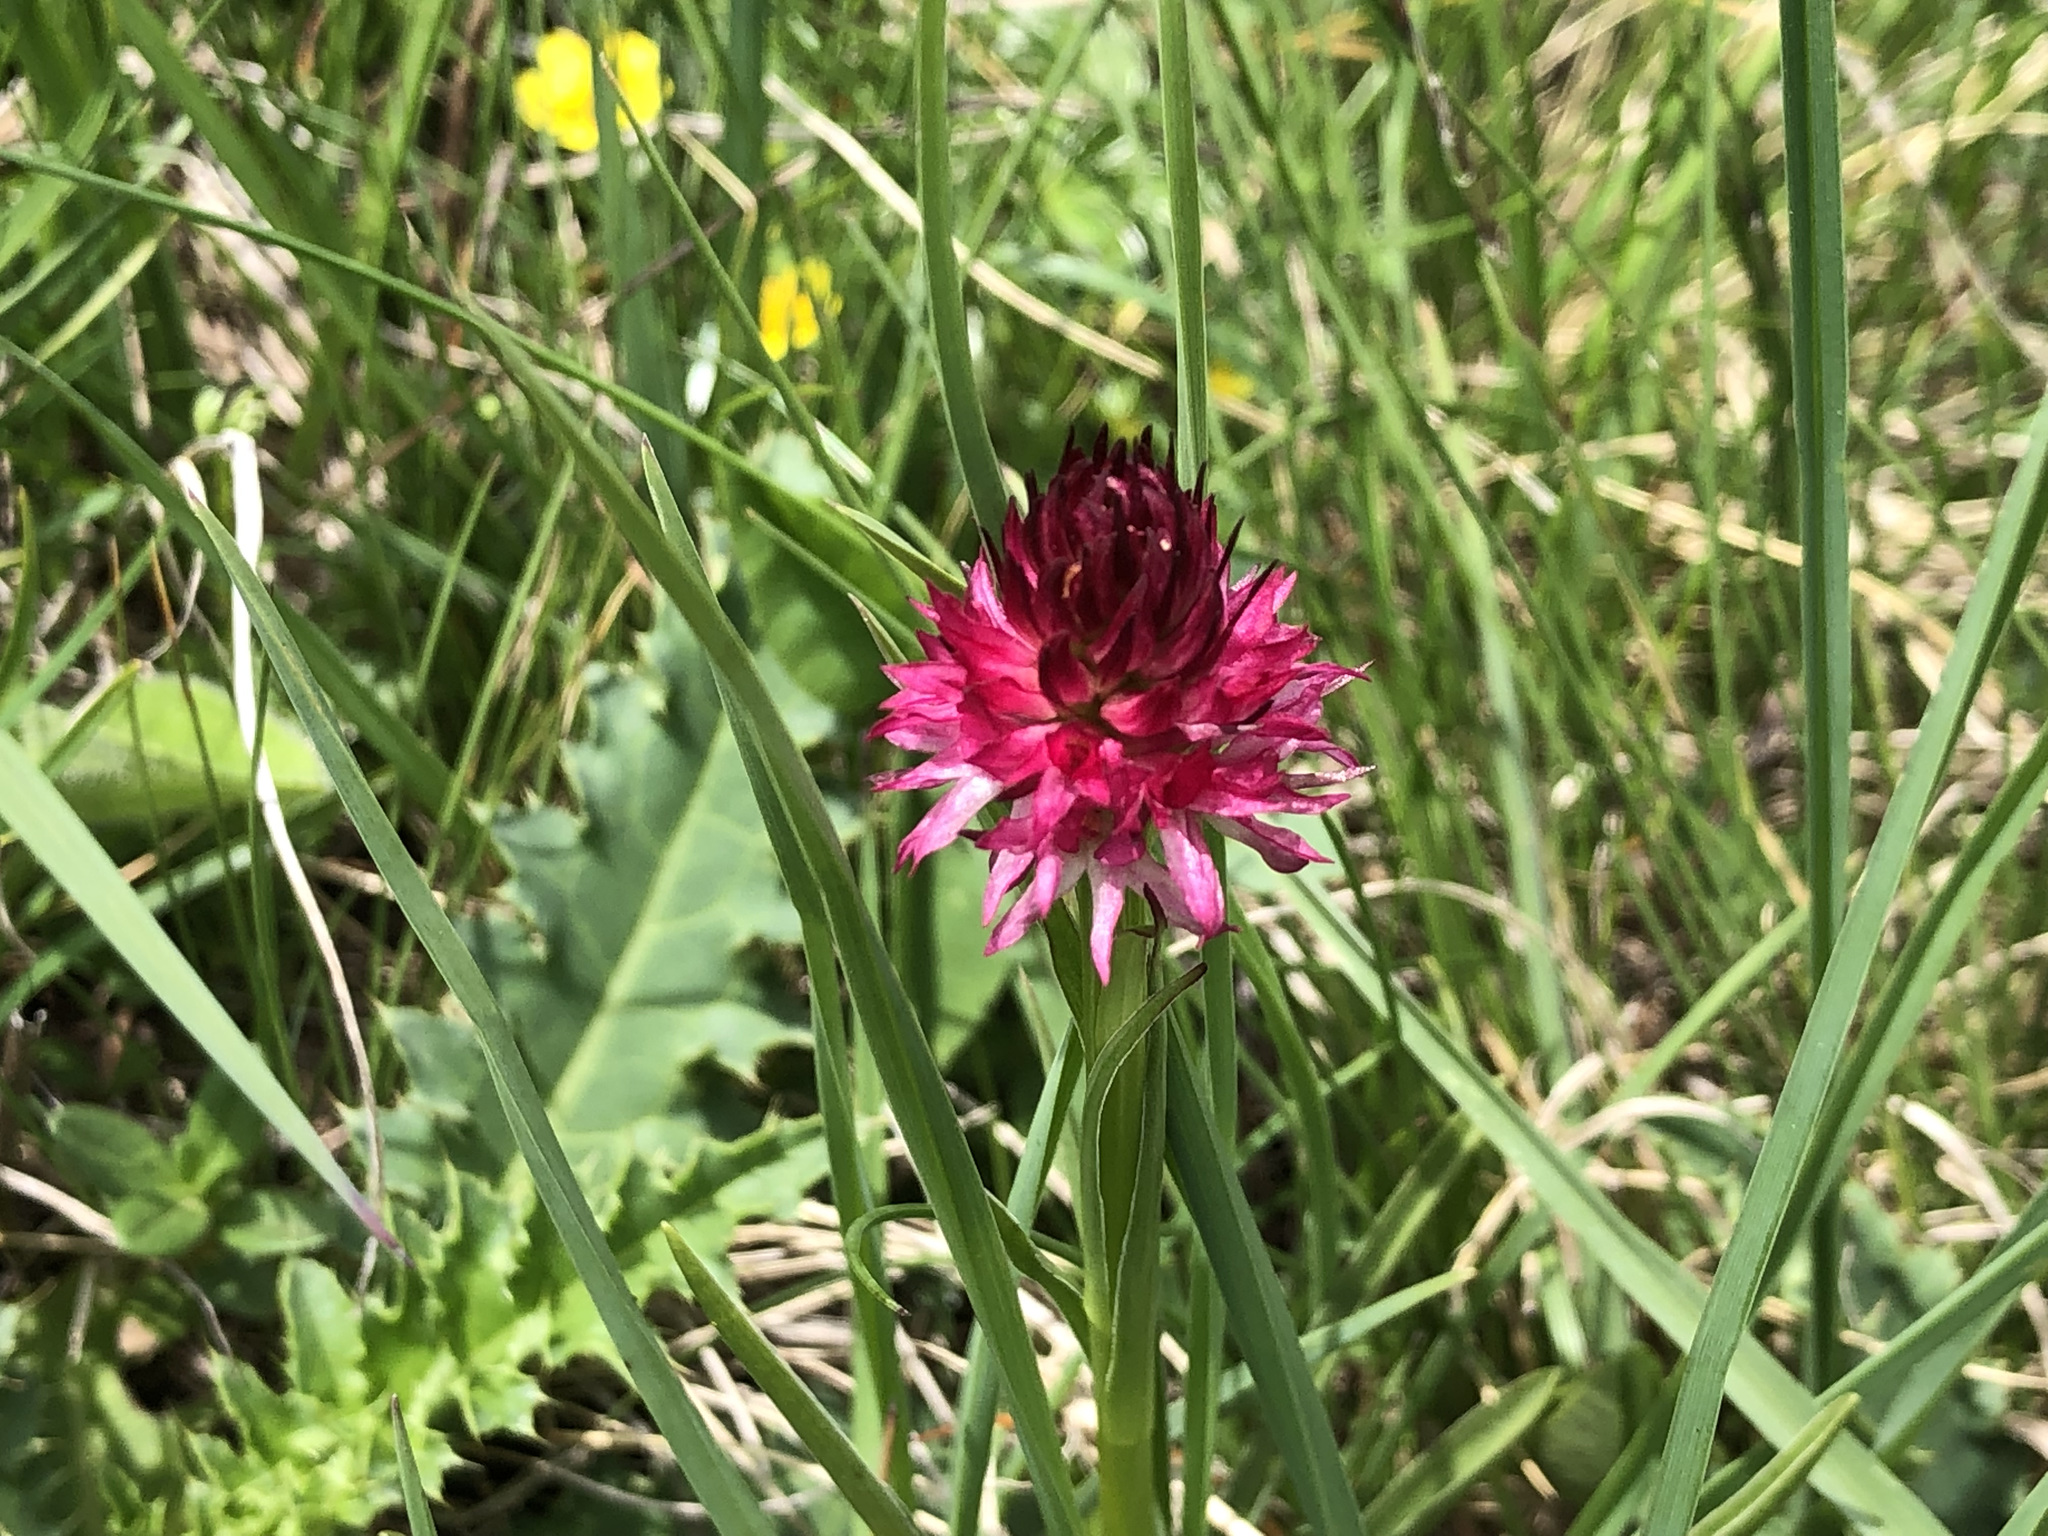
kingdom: Plantae
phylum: Tracheophyta
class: Liliopsida
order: Asparagales
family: Orchidaceae
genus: Gymnadenia
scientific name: Gymnadenia miniata
